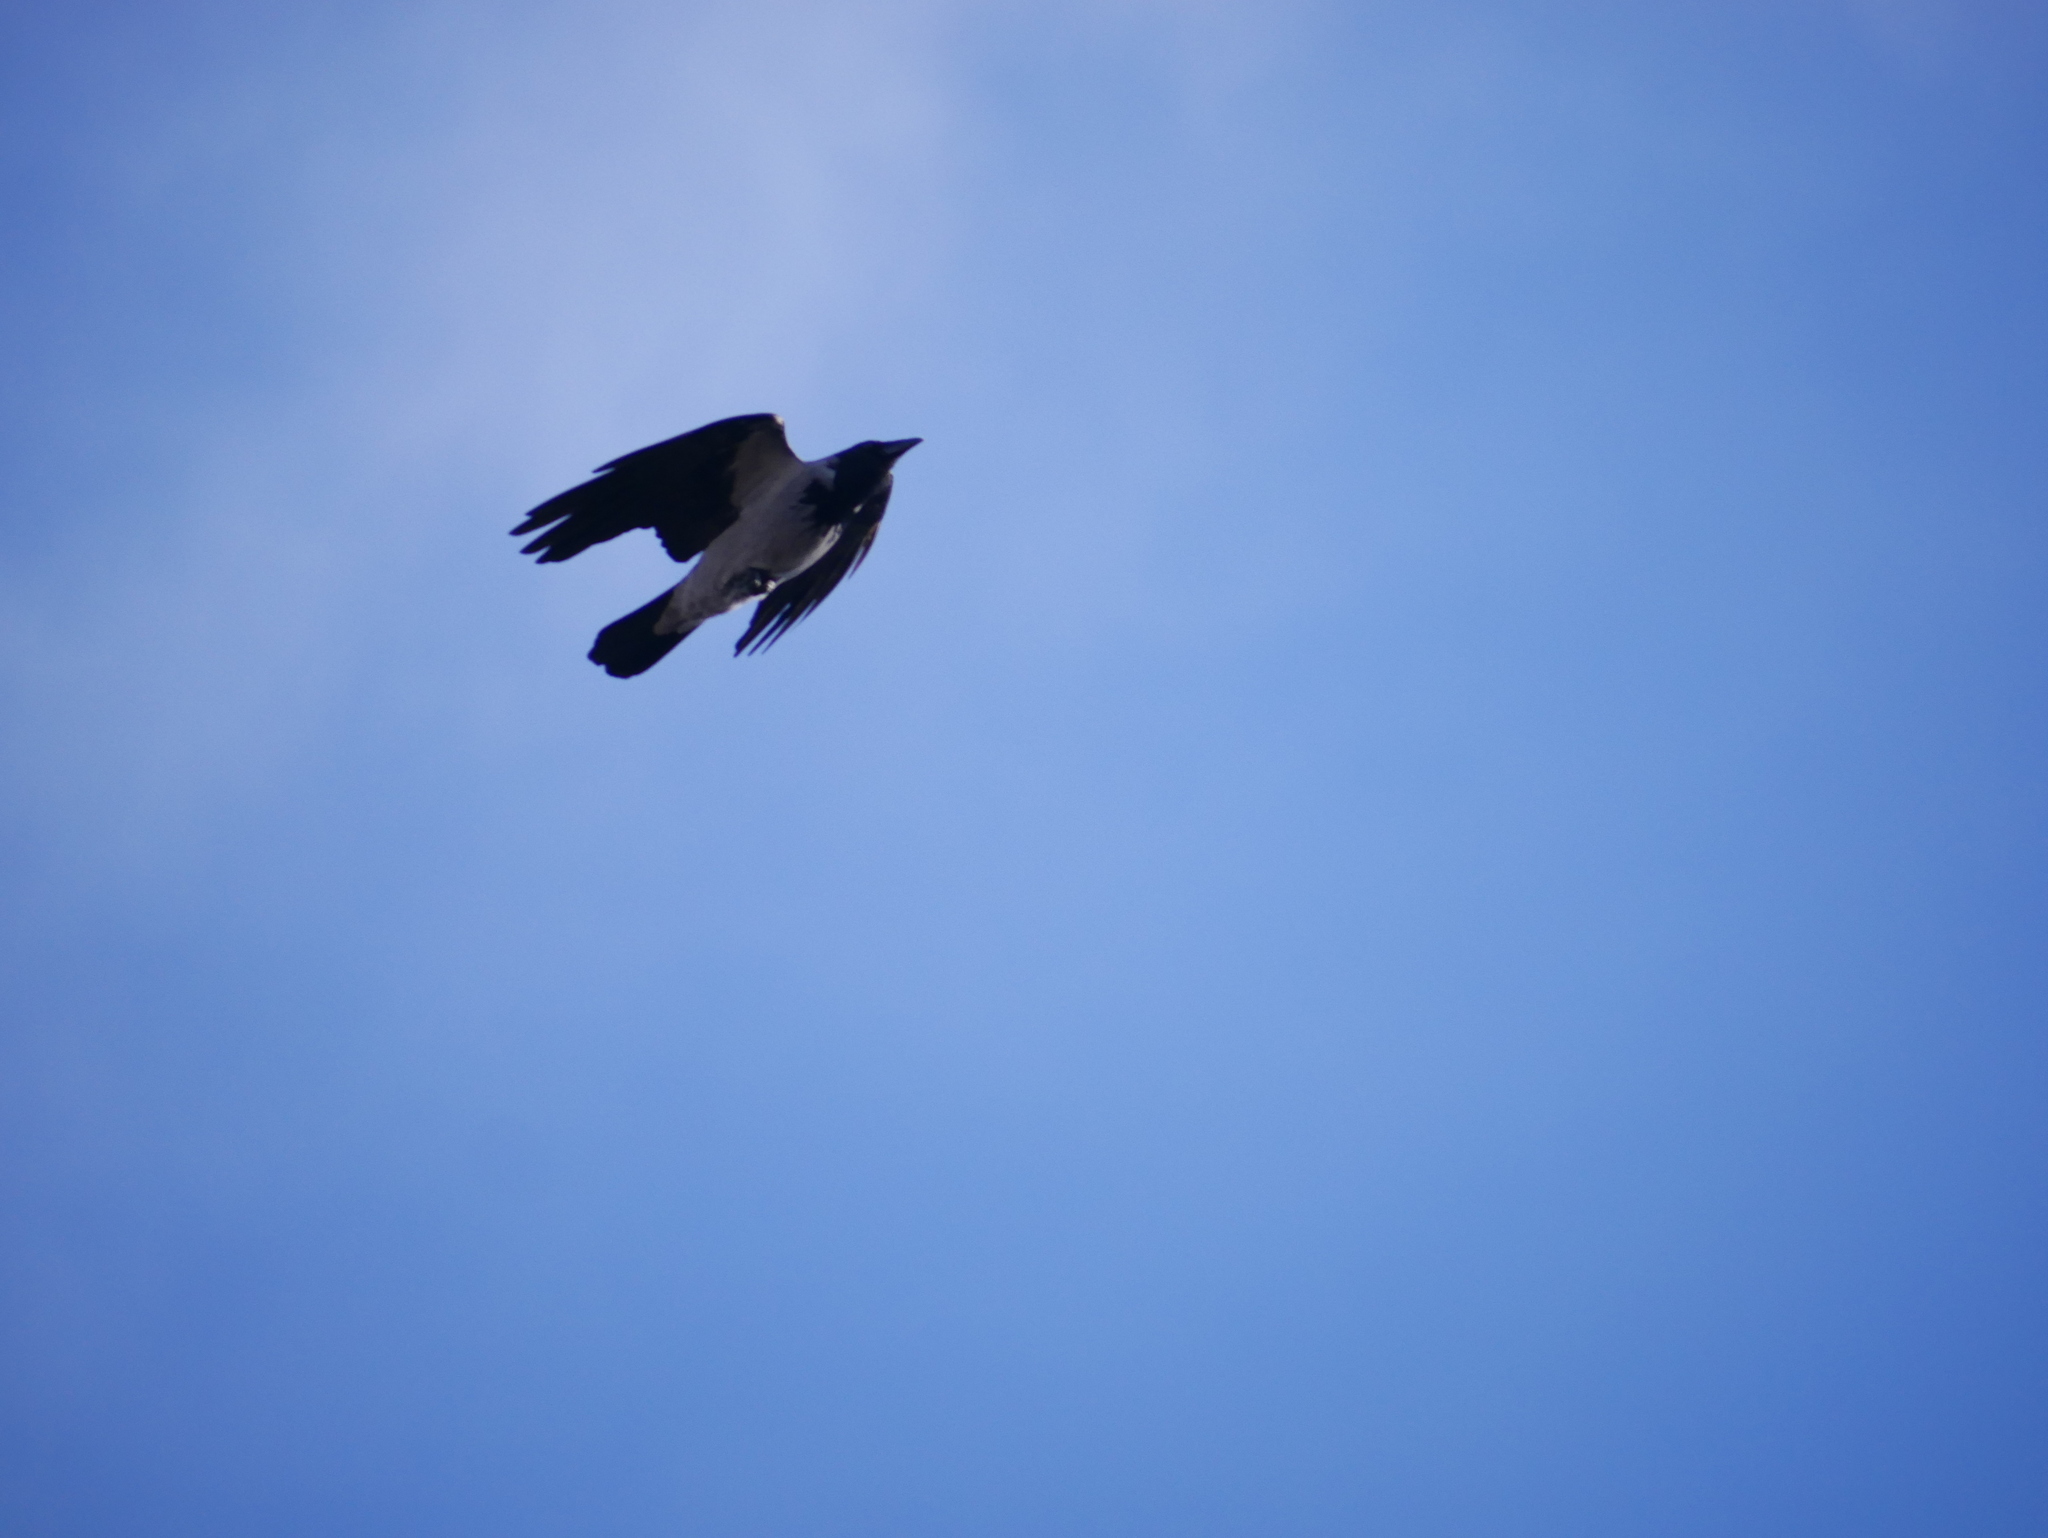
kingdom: Animalia
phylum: Chordata
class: Aves
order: Passeriformes
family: Corvidae
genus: Corvus
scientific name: Corvus cornix
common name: Hooded crow
